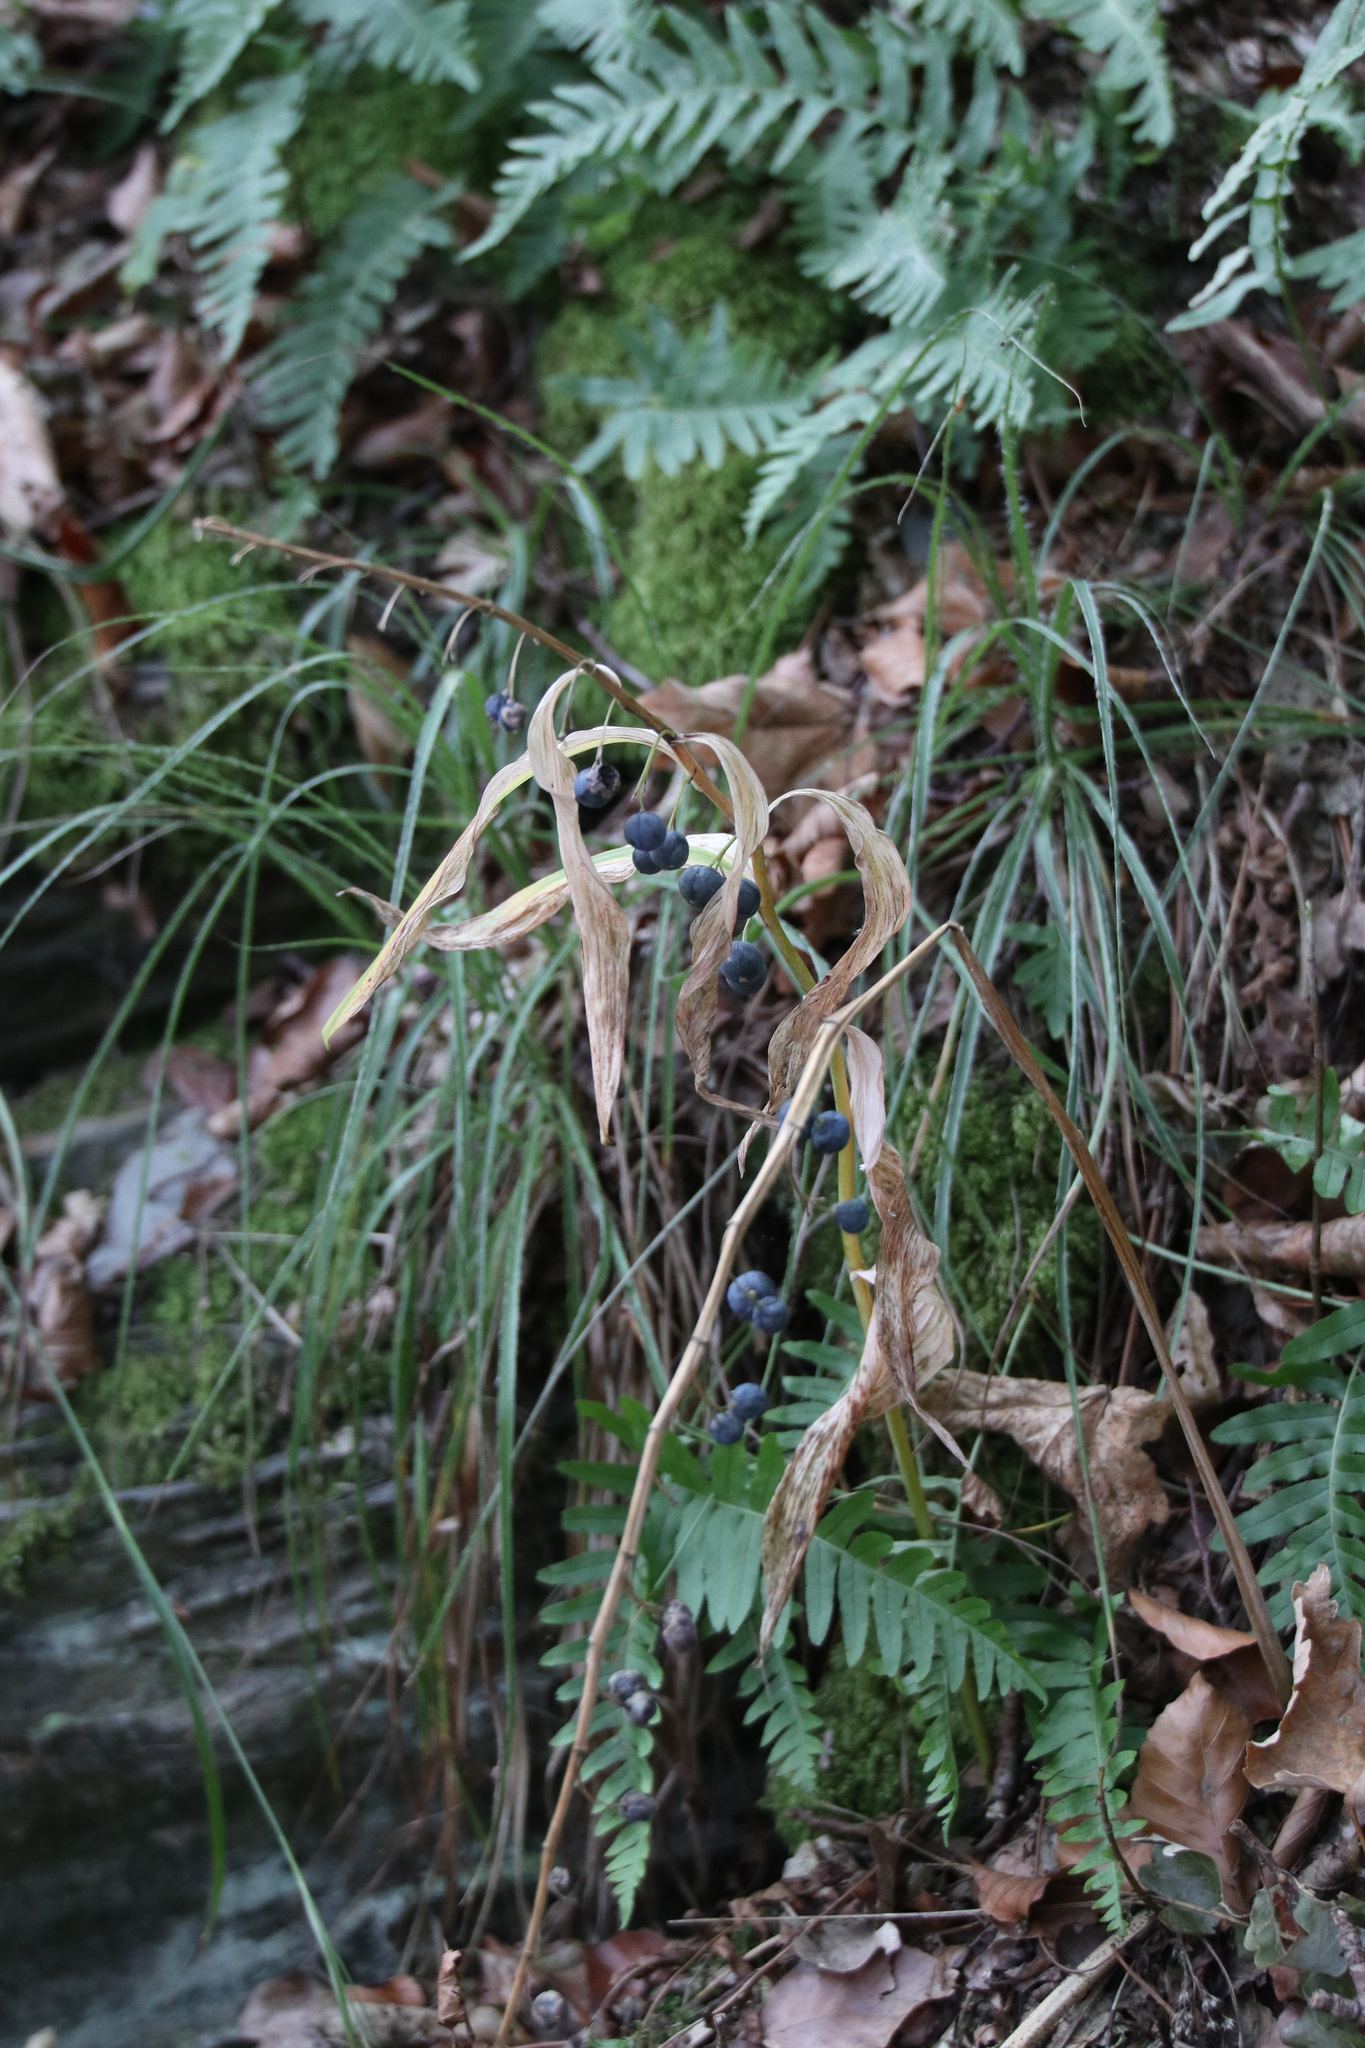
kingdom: Plantae
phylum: Tracheophyta
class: Liliopsida
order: Asparagales
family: Asparagaceae
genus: Polygonatum
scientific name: Polygonatum multiflorum
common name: Solomon's-seal
